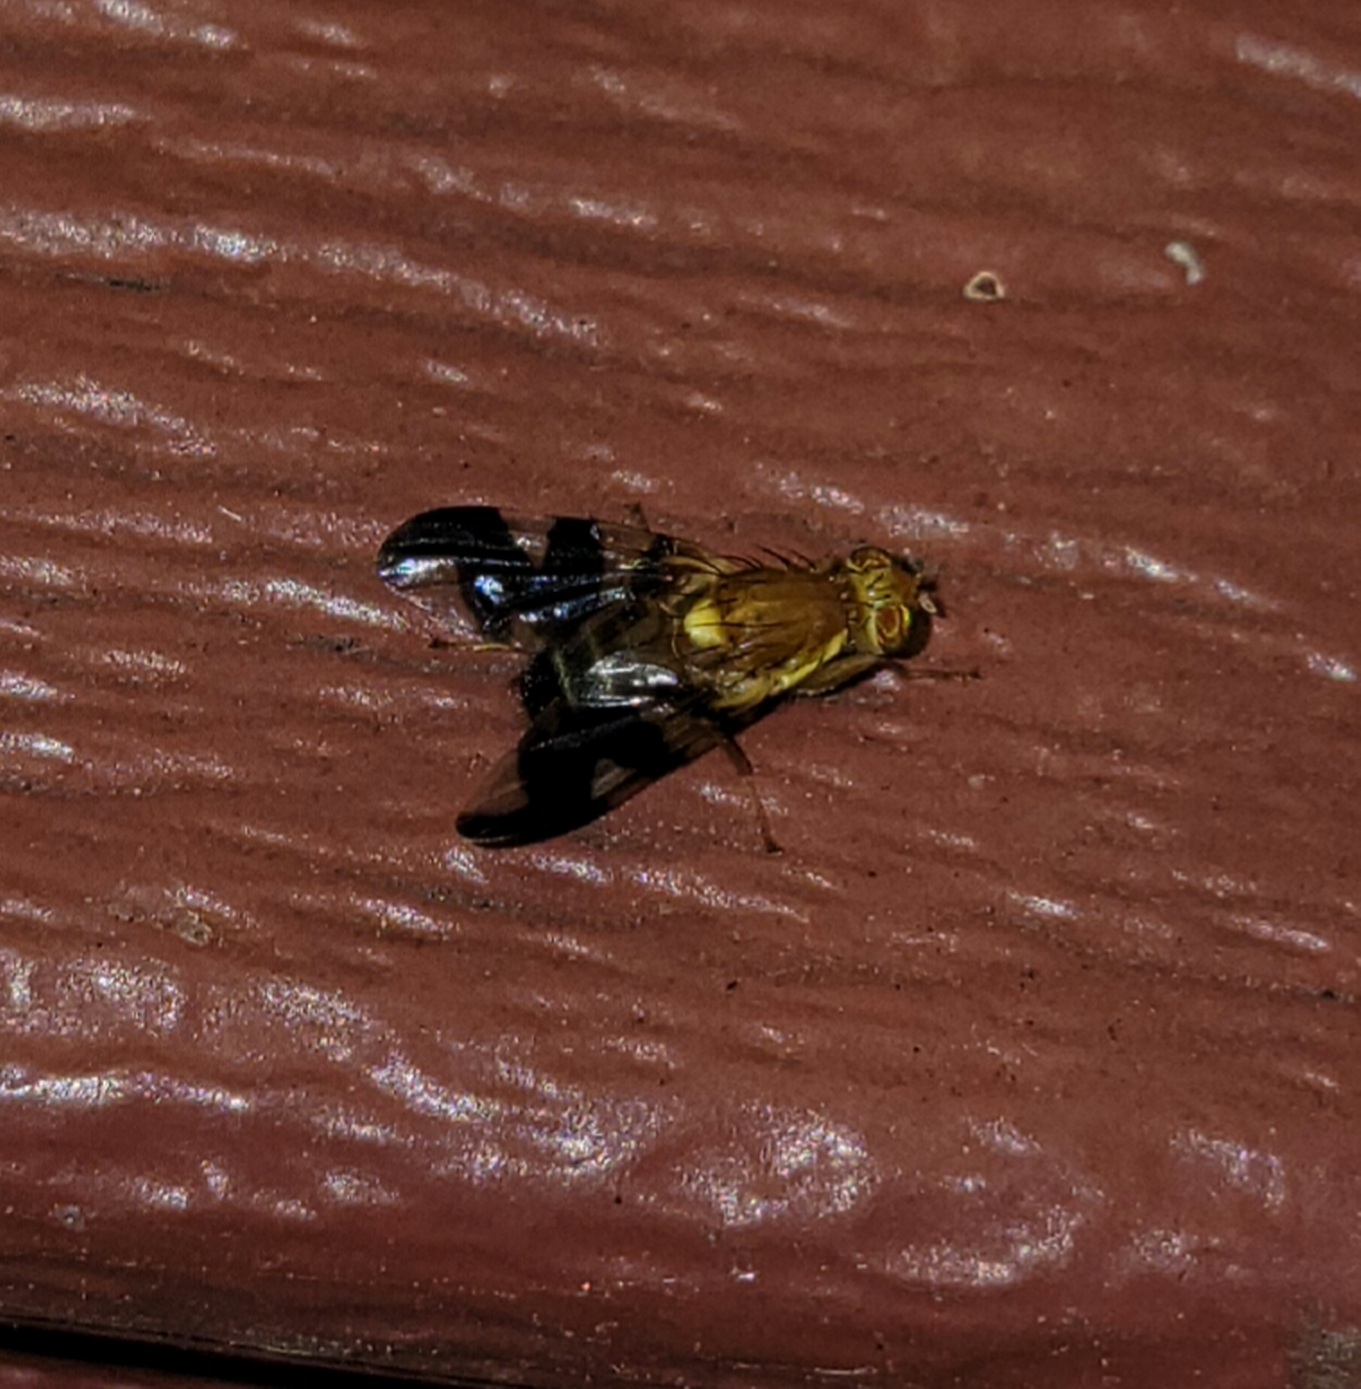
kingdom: Animalia
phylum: Arthropoda
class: Insecta
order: Diptera
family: Tephritidae
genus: Rhagoletis
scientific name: Rhagoletis suavis
